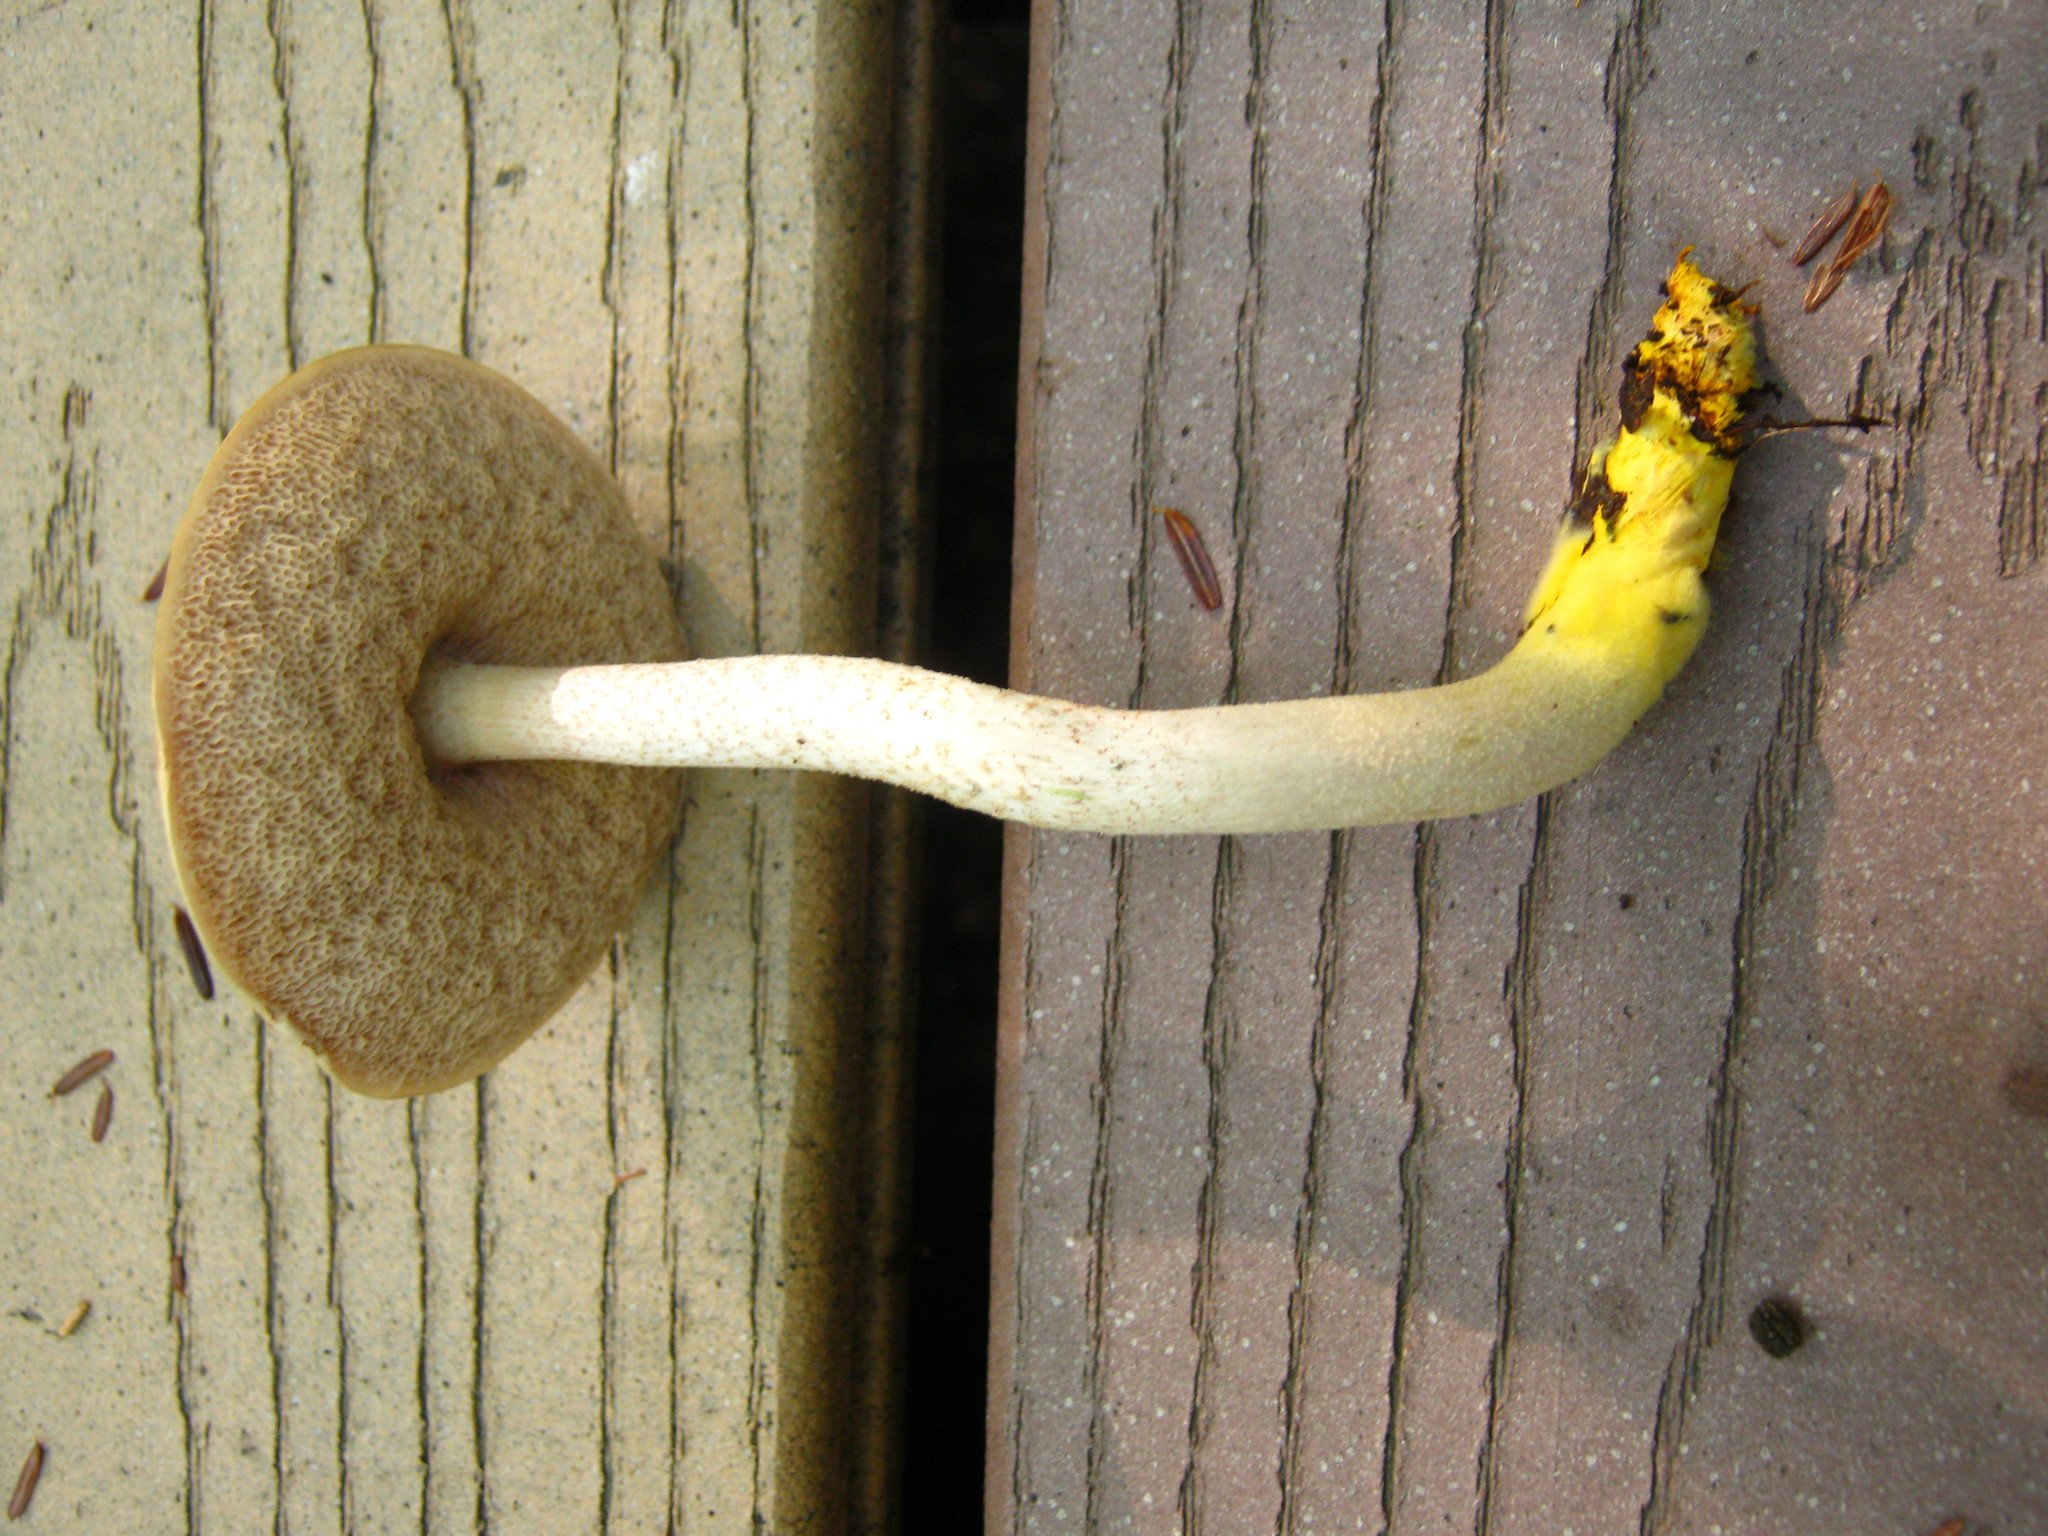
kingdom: Fungi
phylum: Basidiomycota
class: Agaricomycetes
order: Boletales
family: Boletaceae
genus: Harrya
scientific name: Harrya chromipes
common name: Chrome-footed bolete
